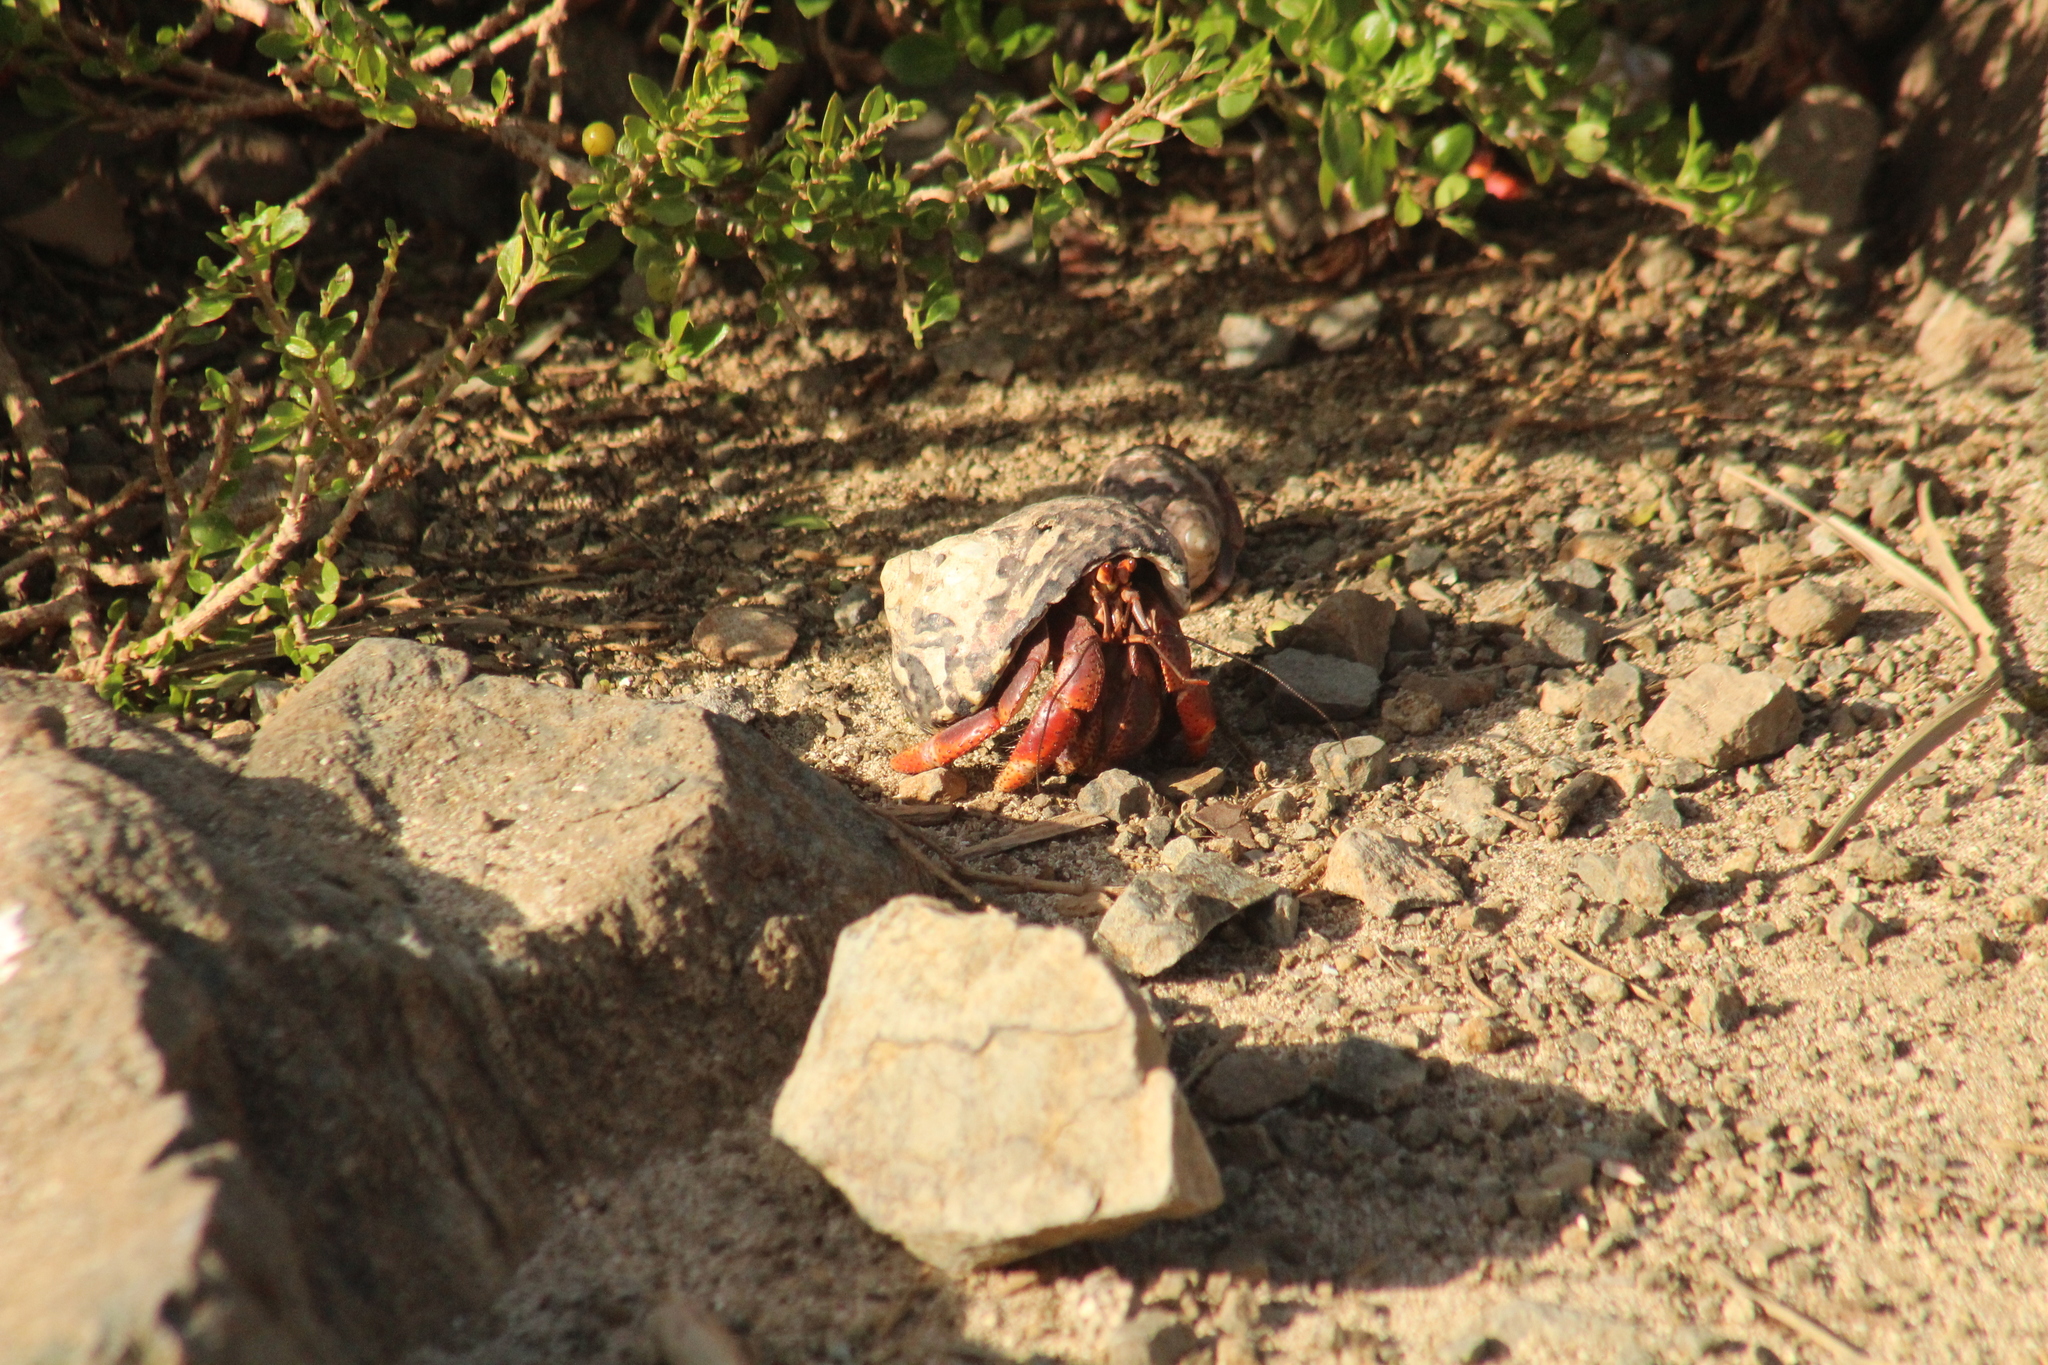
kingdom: Animalia
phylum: Arthropoda
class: Malacostraca
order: Decapoda
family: Coenobitidae
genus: Coenobita
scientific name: Coenobita clypeatus
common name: Caribbean hermit crab
